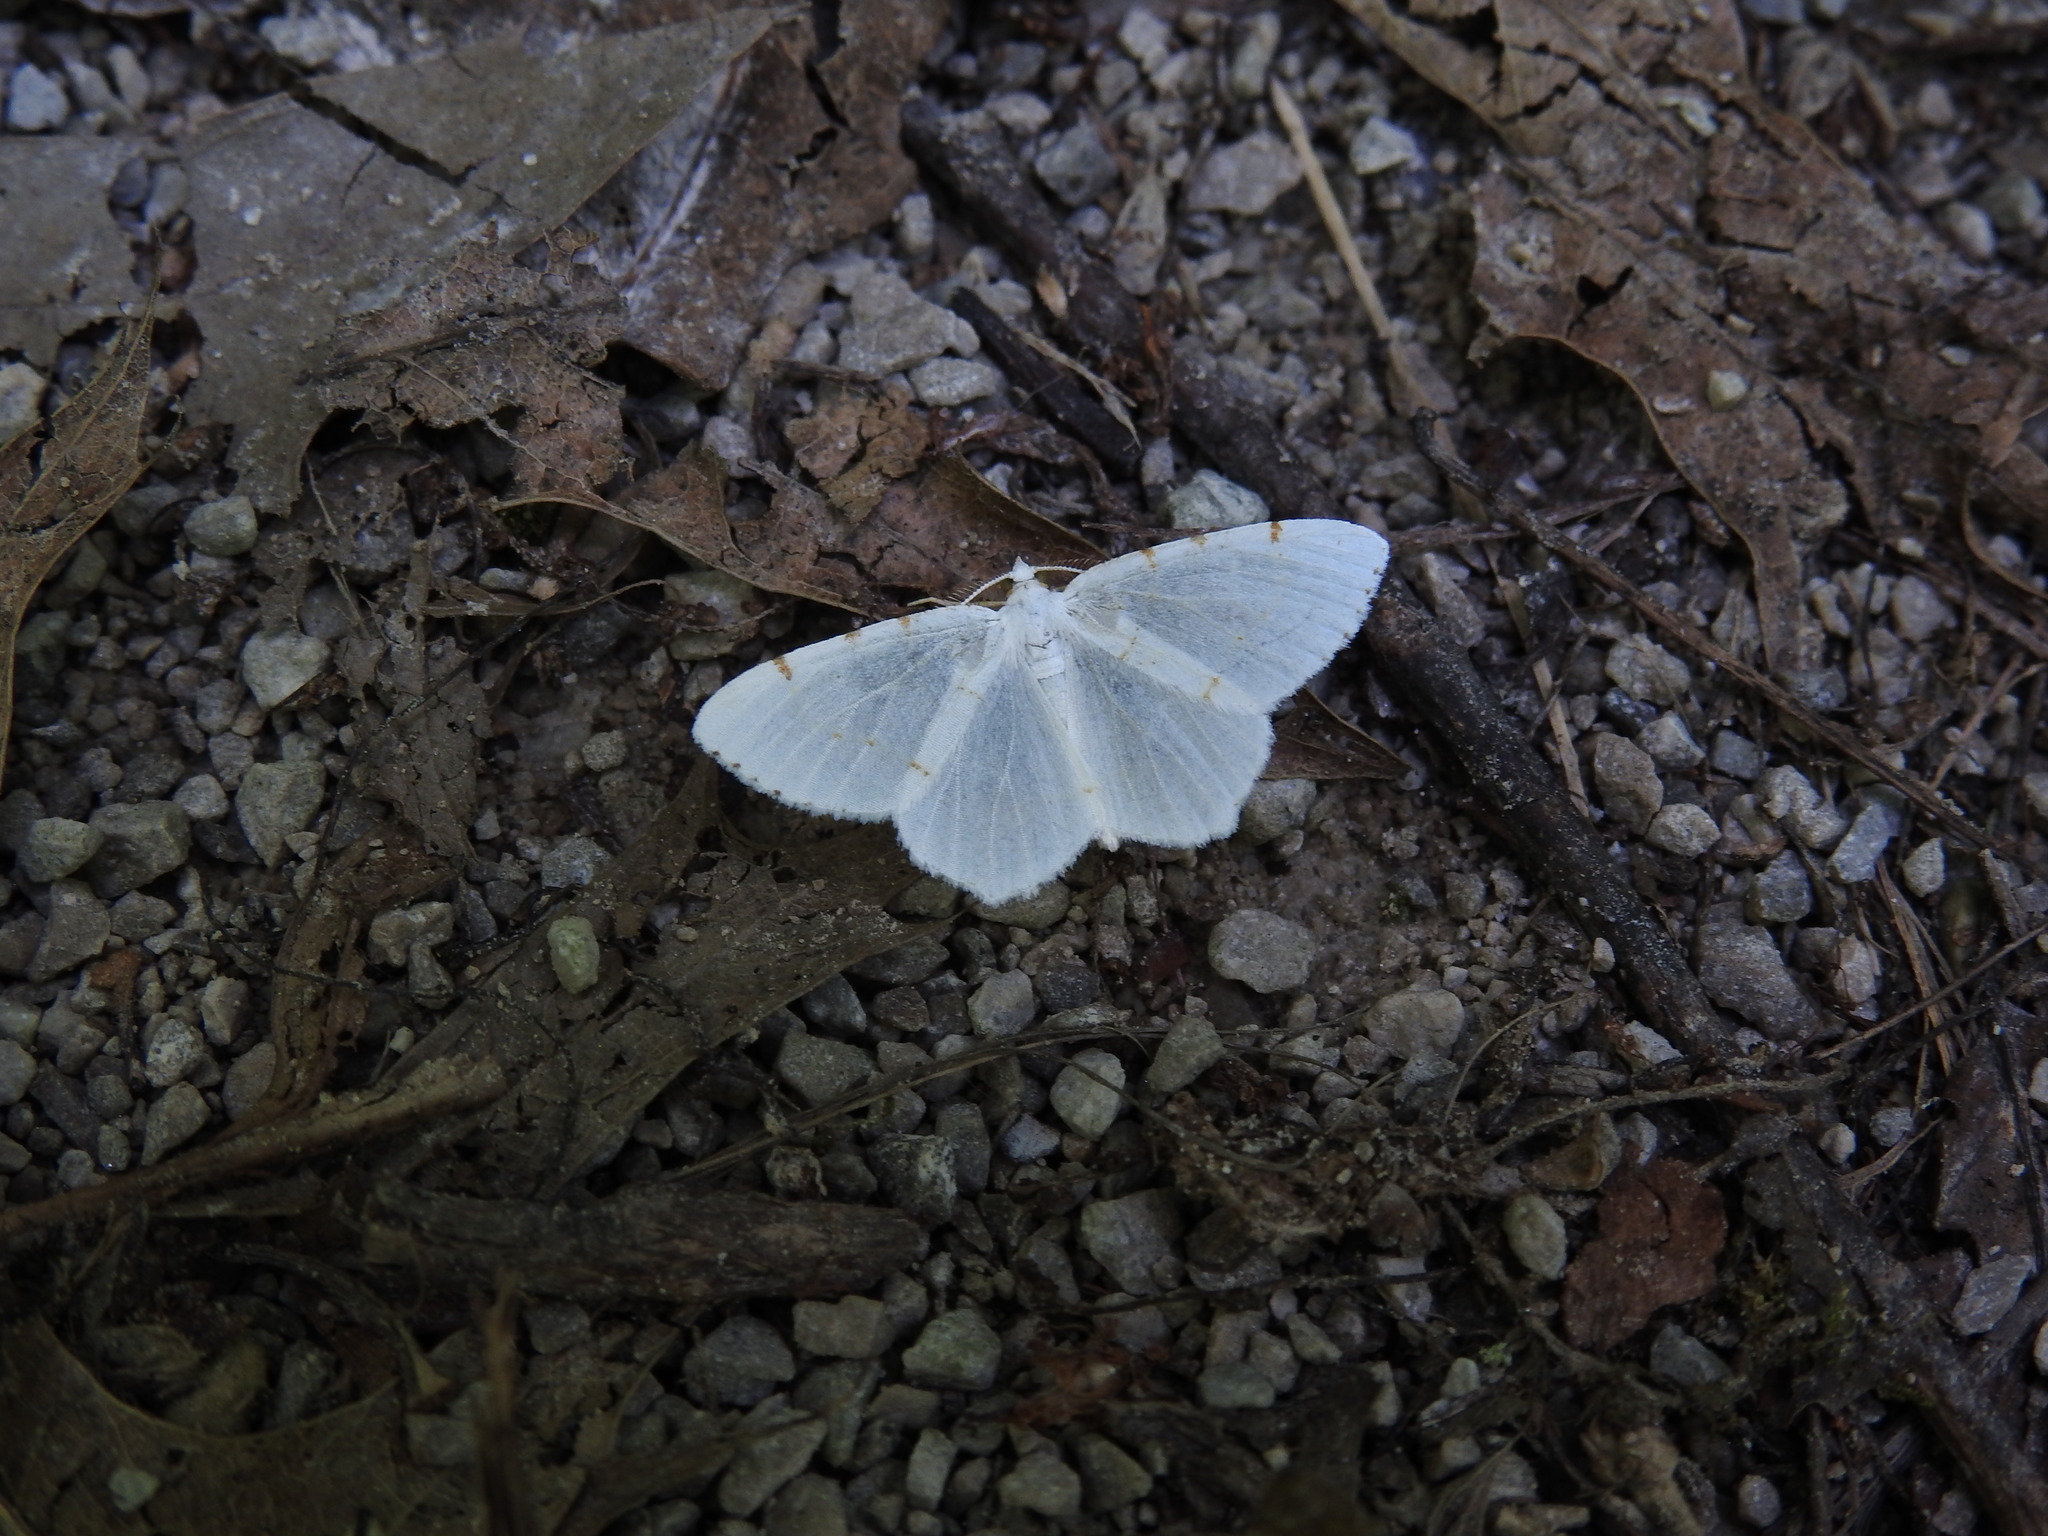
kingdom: Animalia
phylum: Arthropoda
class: Insecta
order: Lepidoptera
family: Geometridae
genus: Macaria
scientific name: Macaria pustularia
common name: Lesser maple spanworm moth
